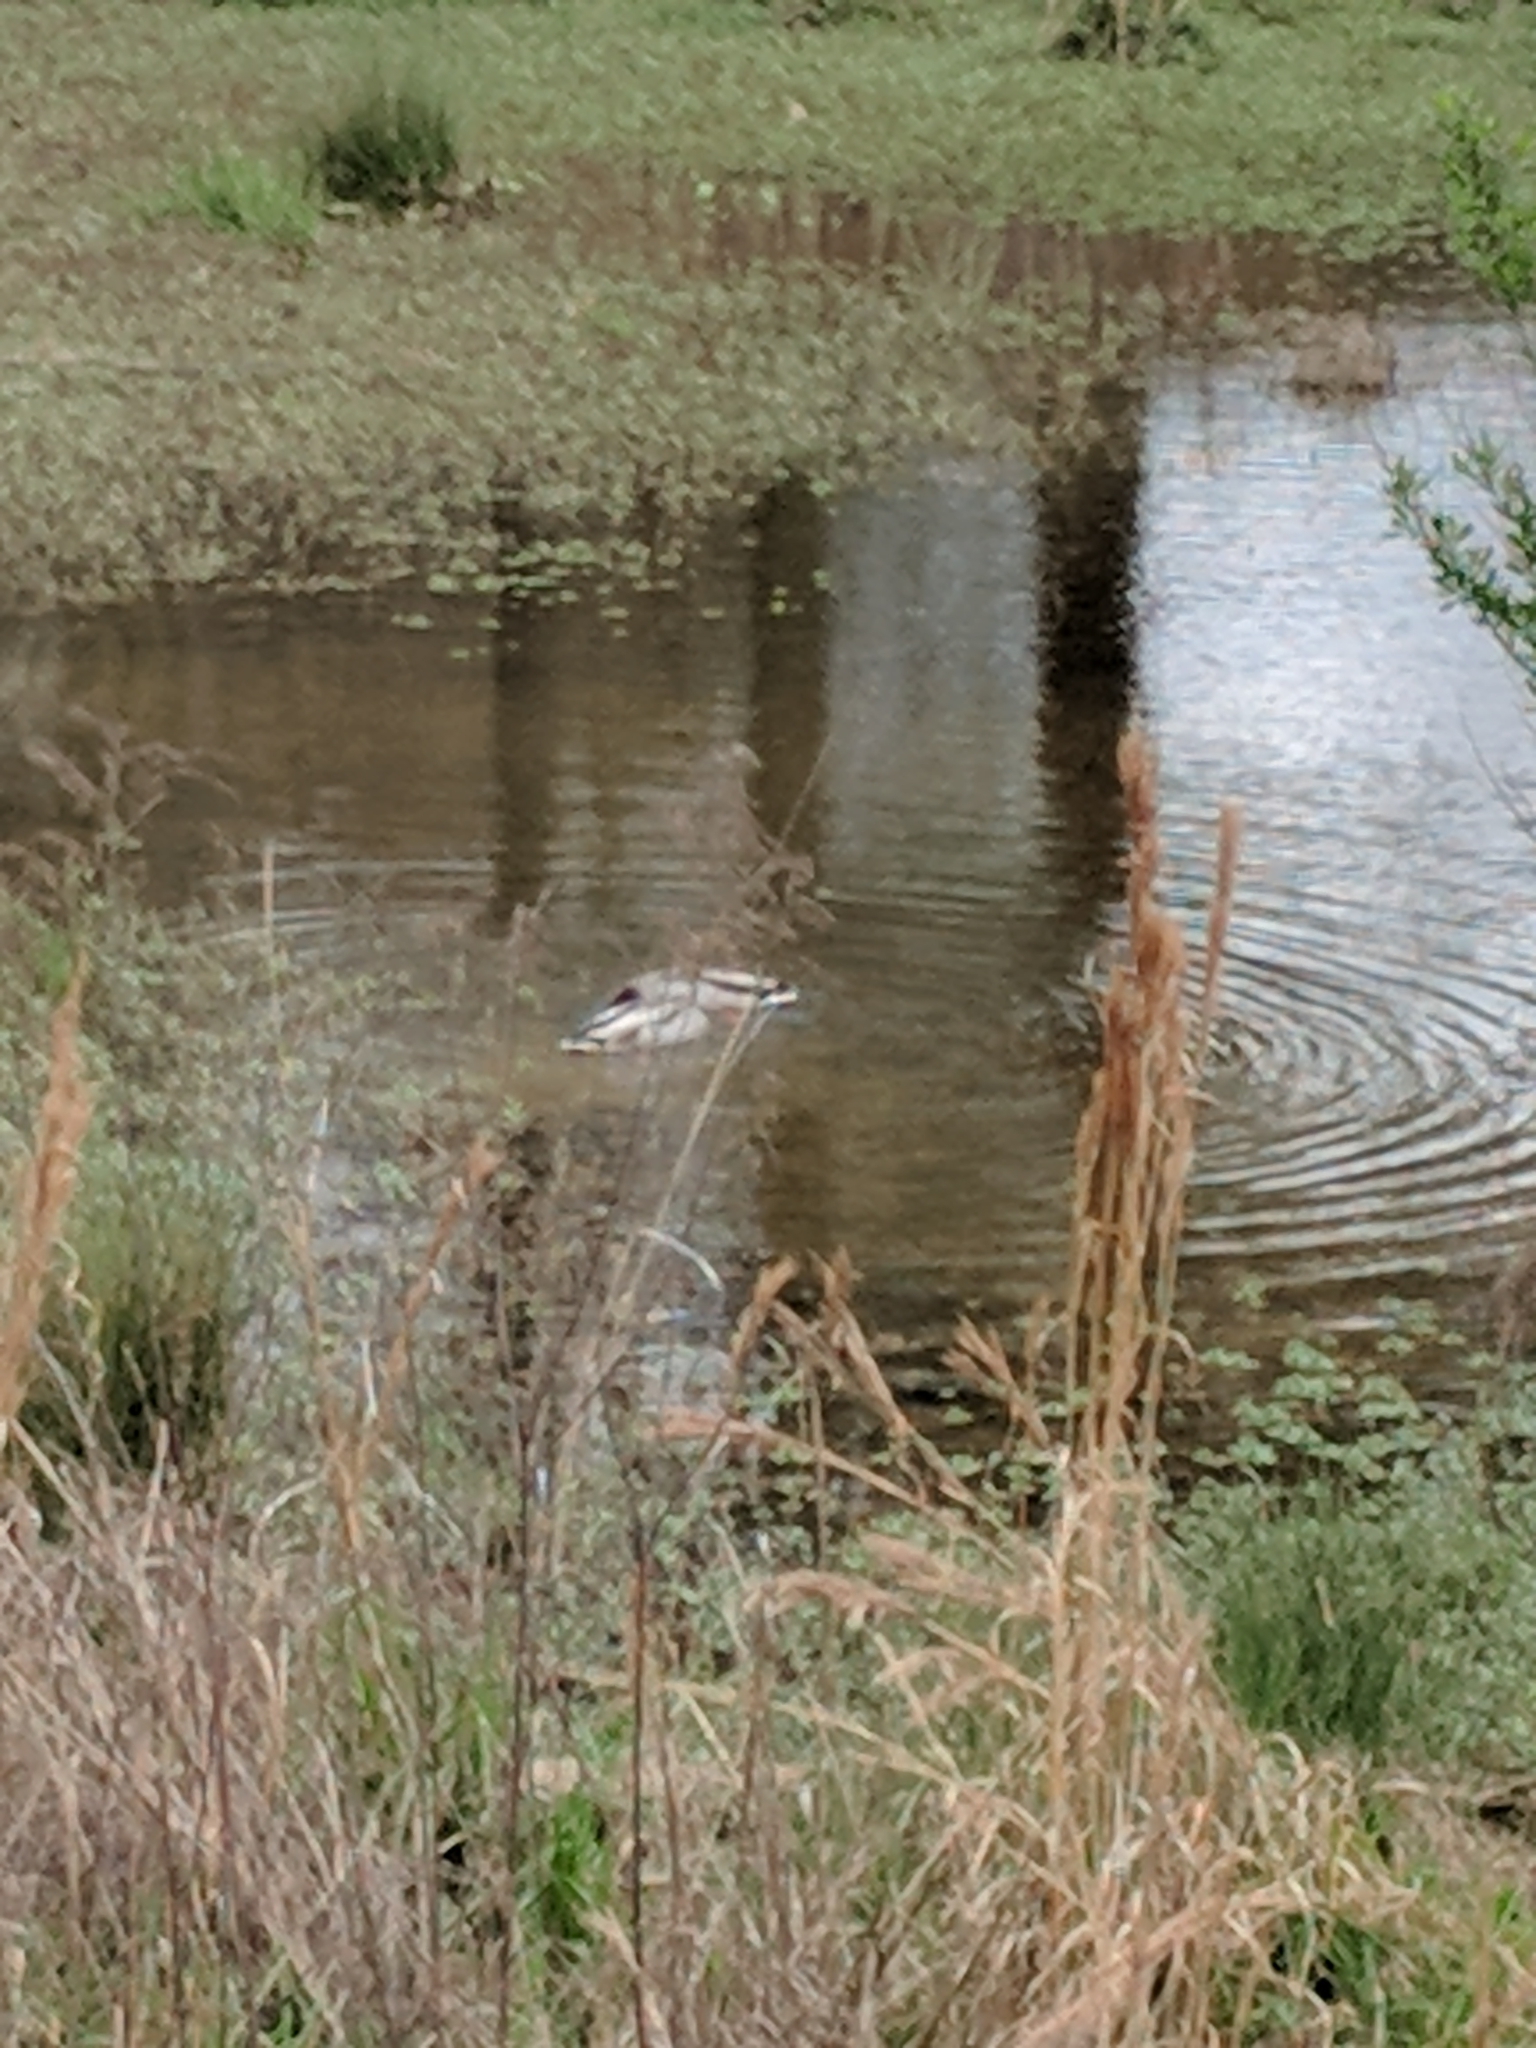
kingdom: Animalia
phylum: Chordata
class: Aves
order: Anseriformes
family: Anatidae
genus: Anas
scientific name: Anas platyrhynchos
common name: Mallard
